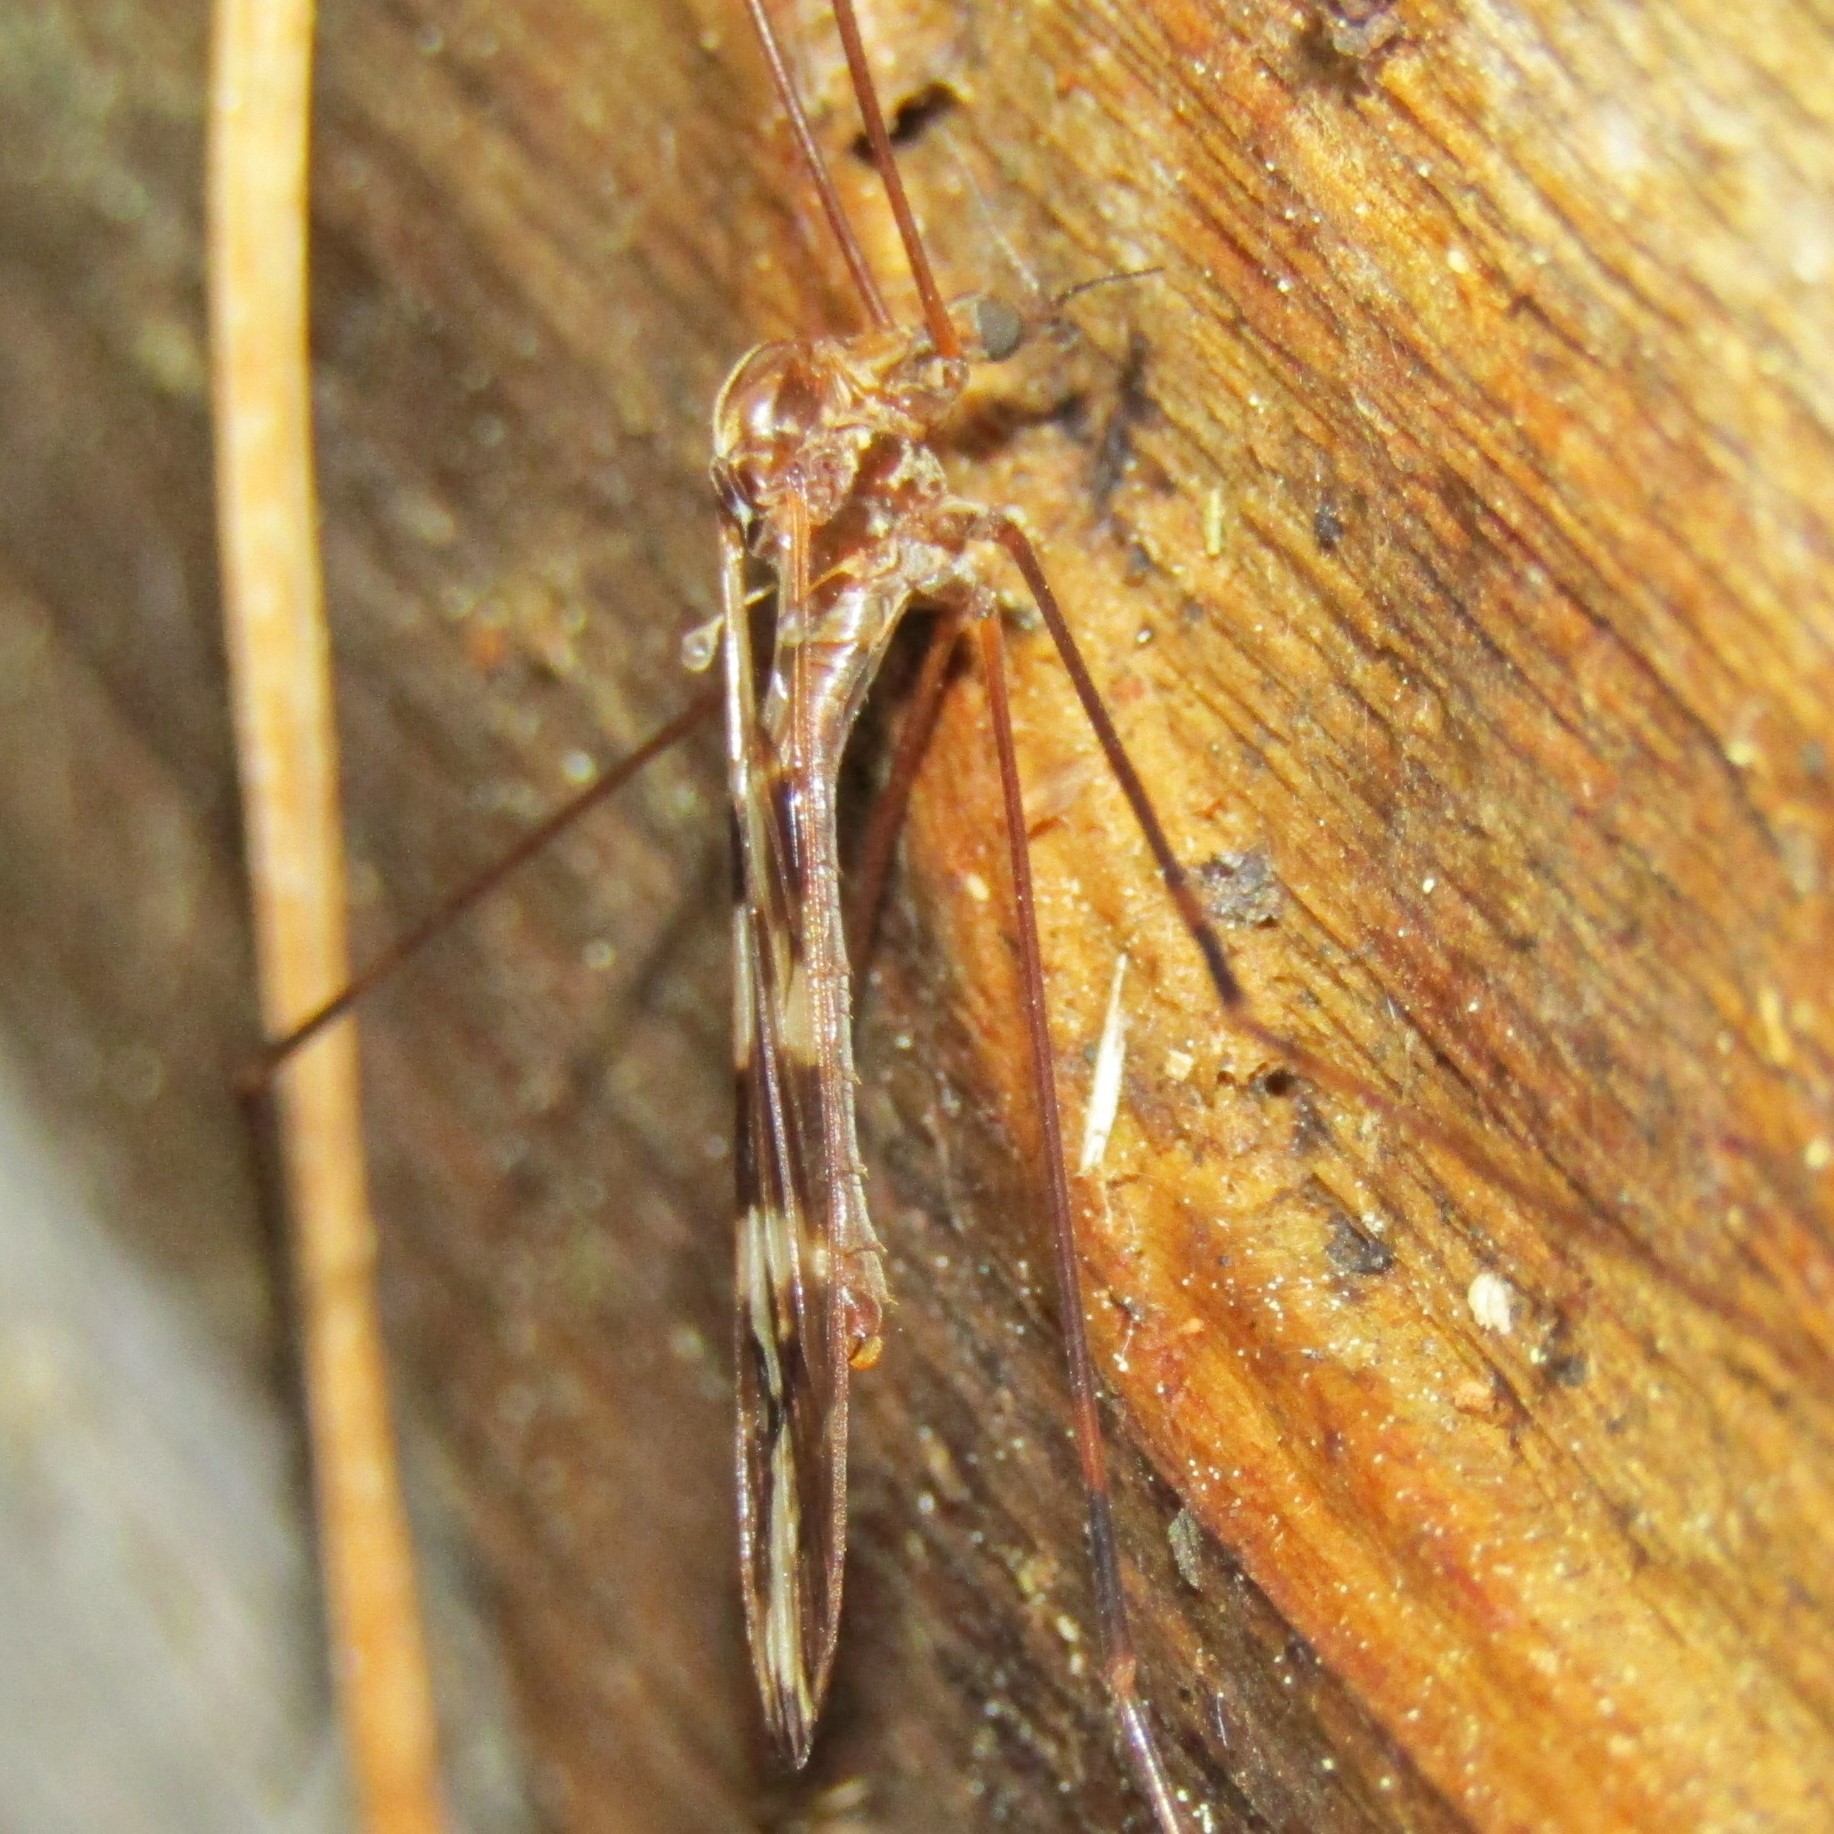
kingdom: Animalia
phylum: Arthropoda
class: Insecta
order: Diptera
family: Limoniidae
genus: Discobola
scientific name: Discobola dohrni
